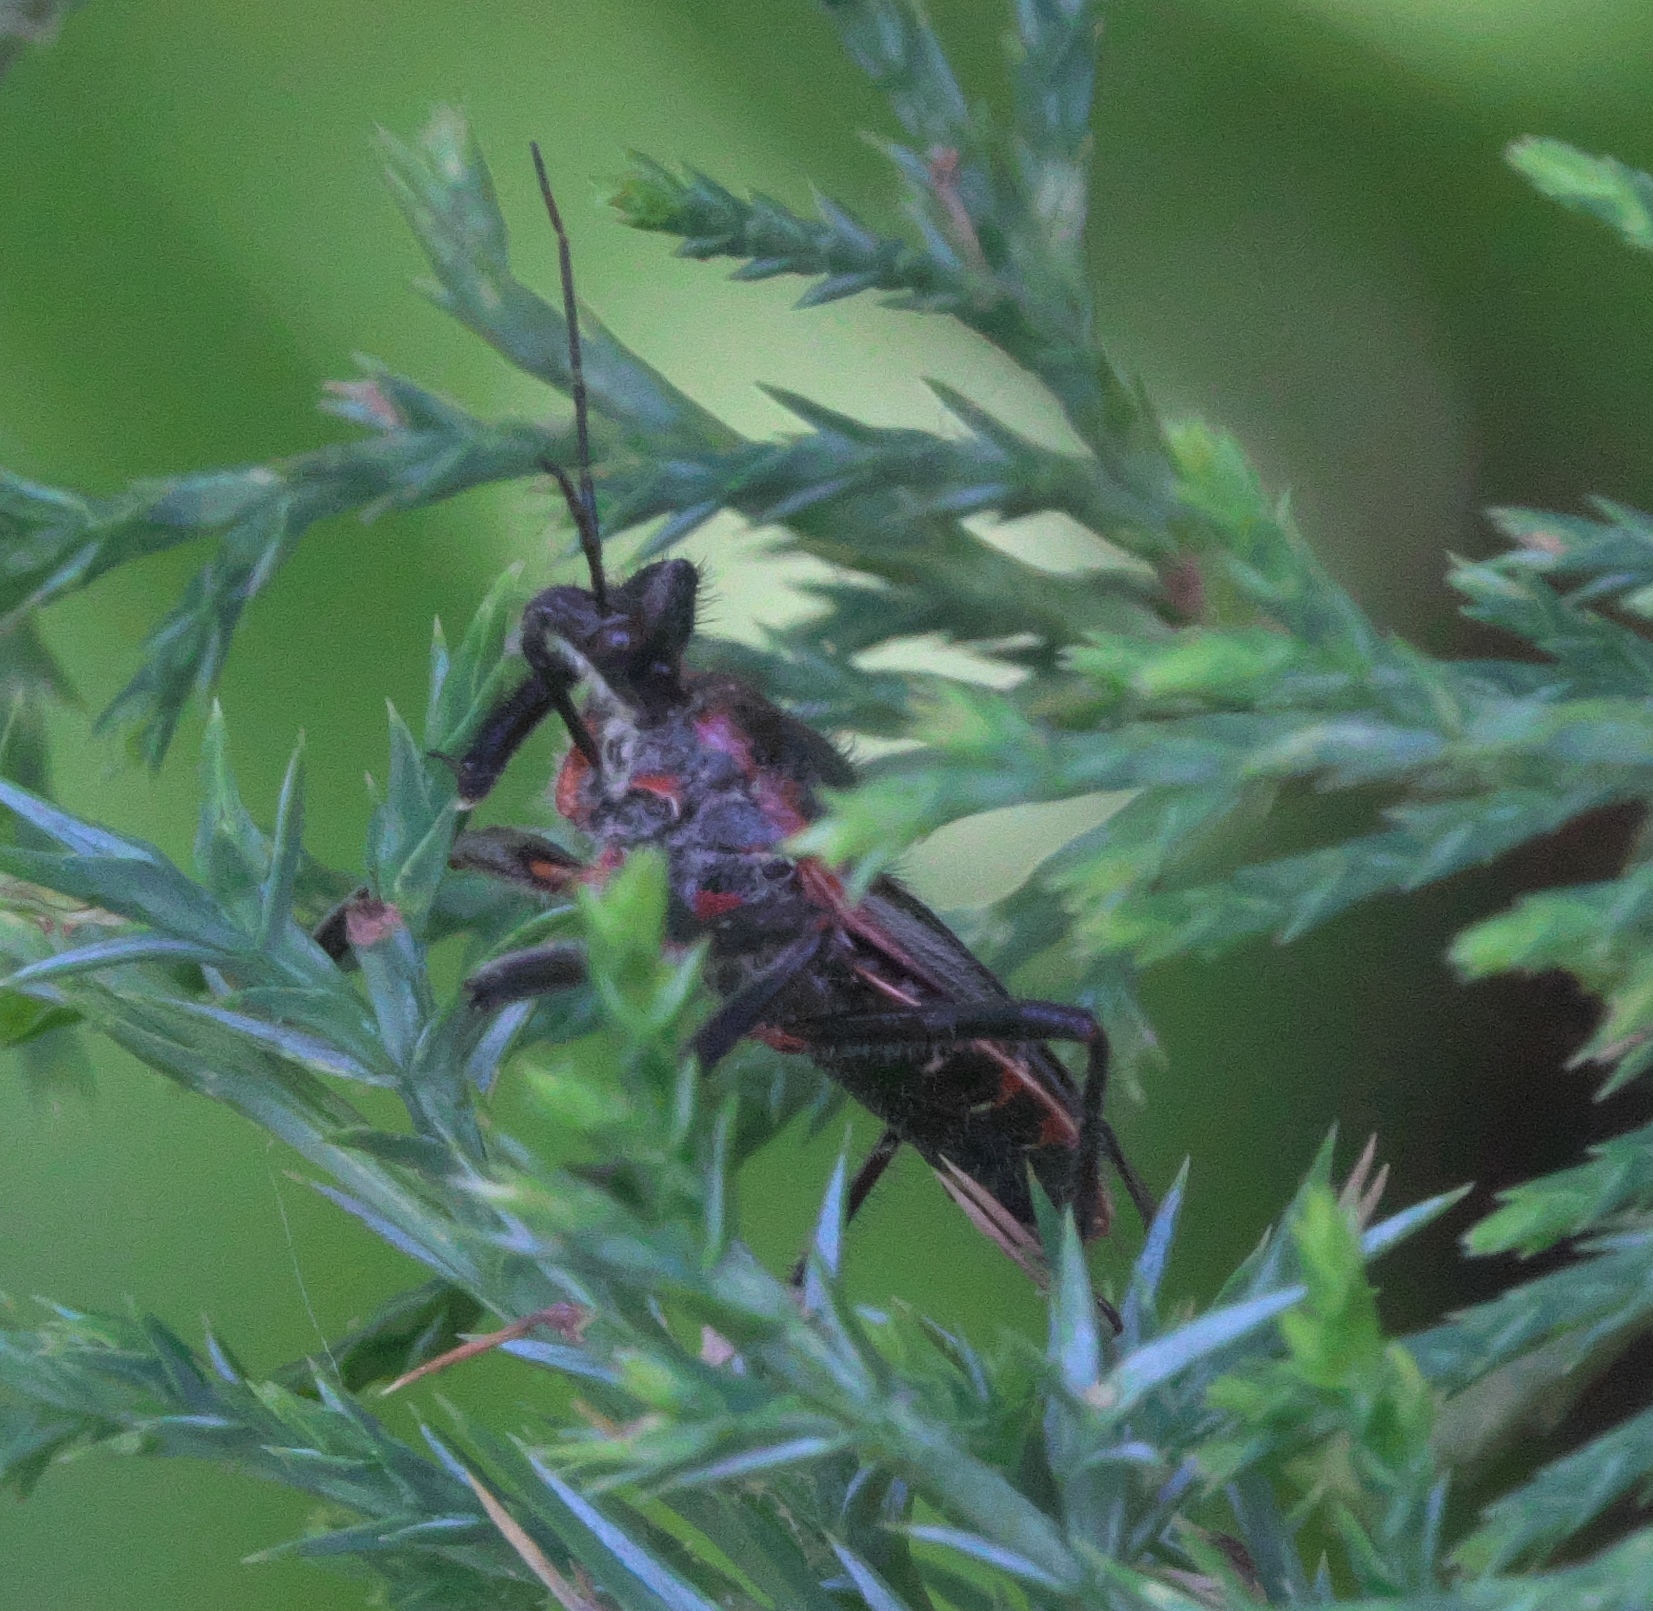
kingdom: Animalia
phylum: Arthropoda
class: Insecta
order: Hemiptera
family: Reduviidae
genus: Apiomerus
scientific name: Apiomerus crassipes
